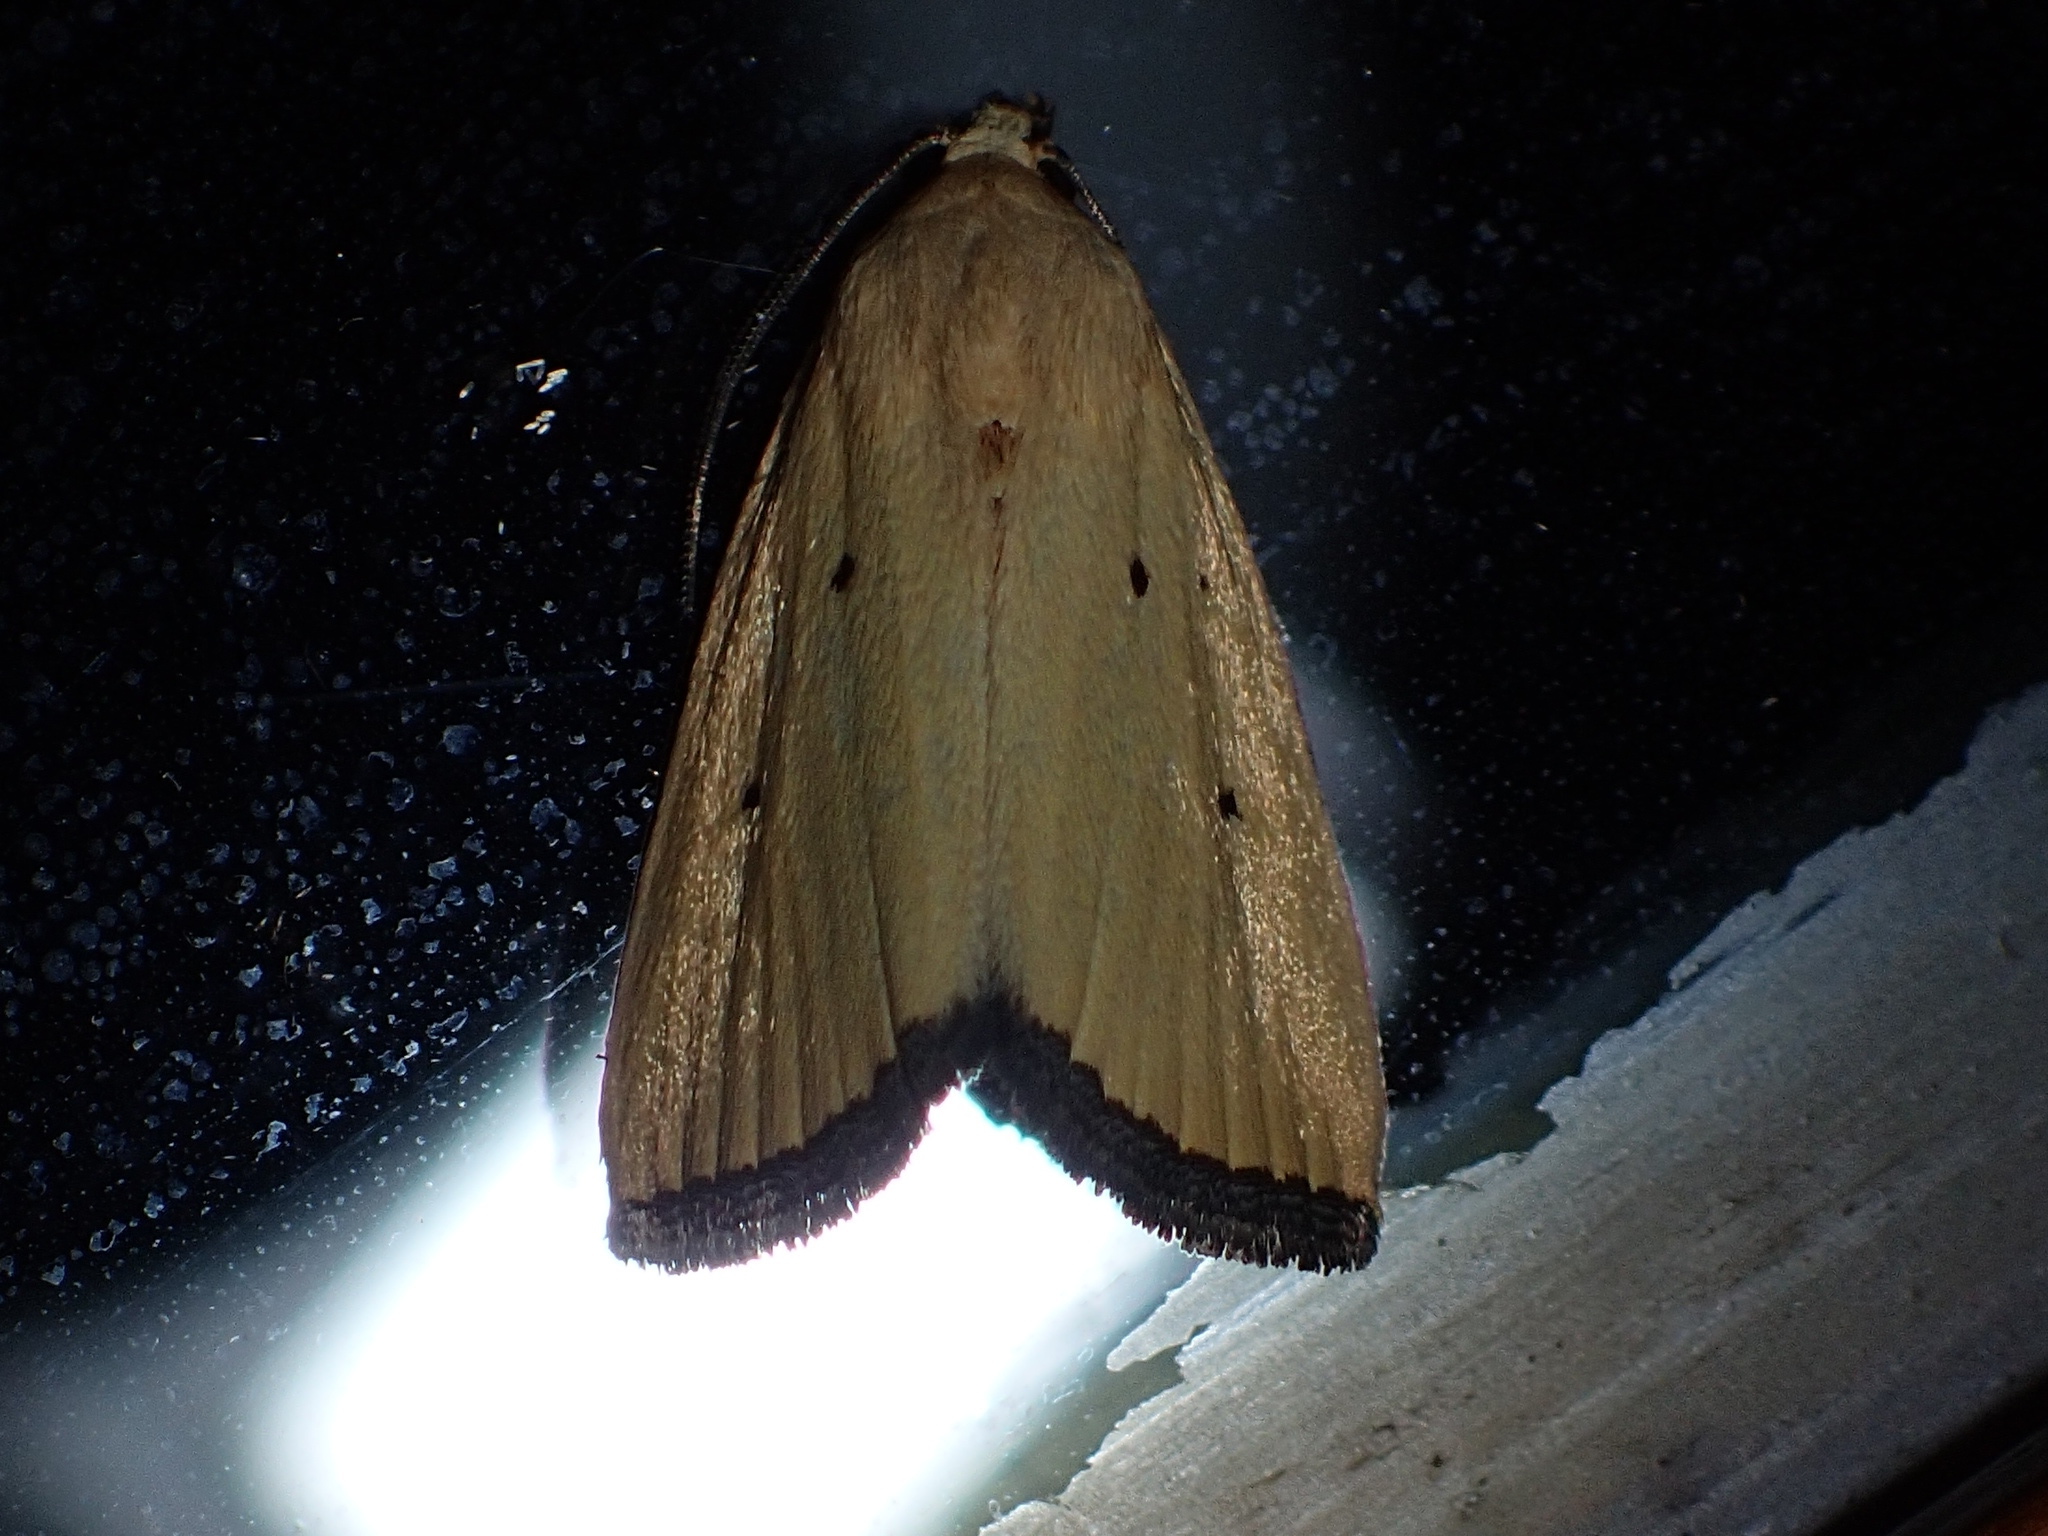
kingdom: Animalia
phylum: Arthropoda
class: Insecta
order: Lepidoptera
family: Noctuidae
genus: Marimatha
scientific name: Marimatha nigrofimbria
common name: Black-bordered lemon moth
